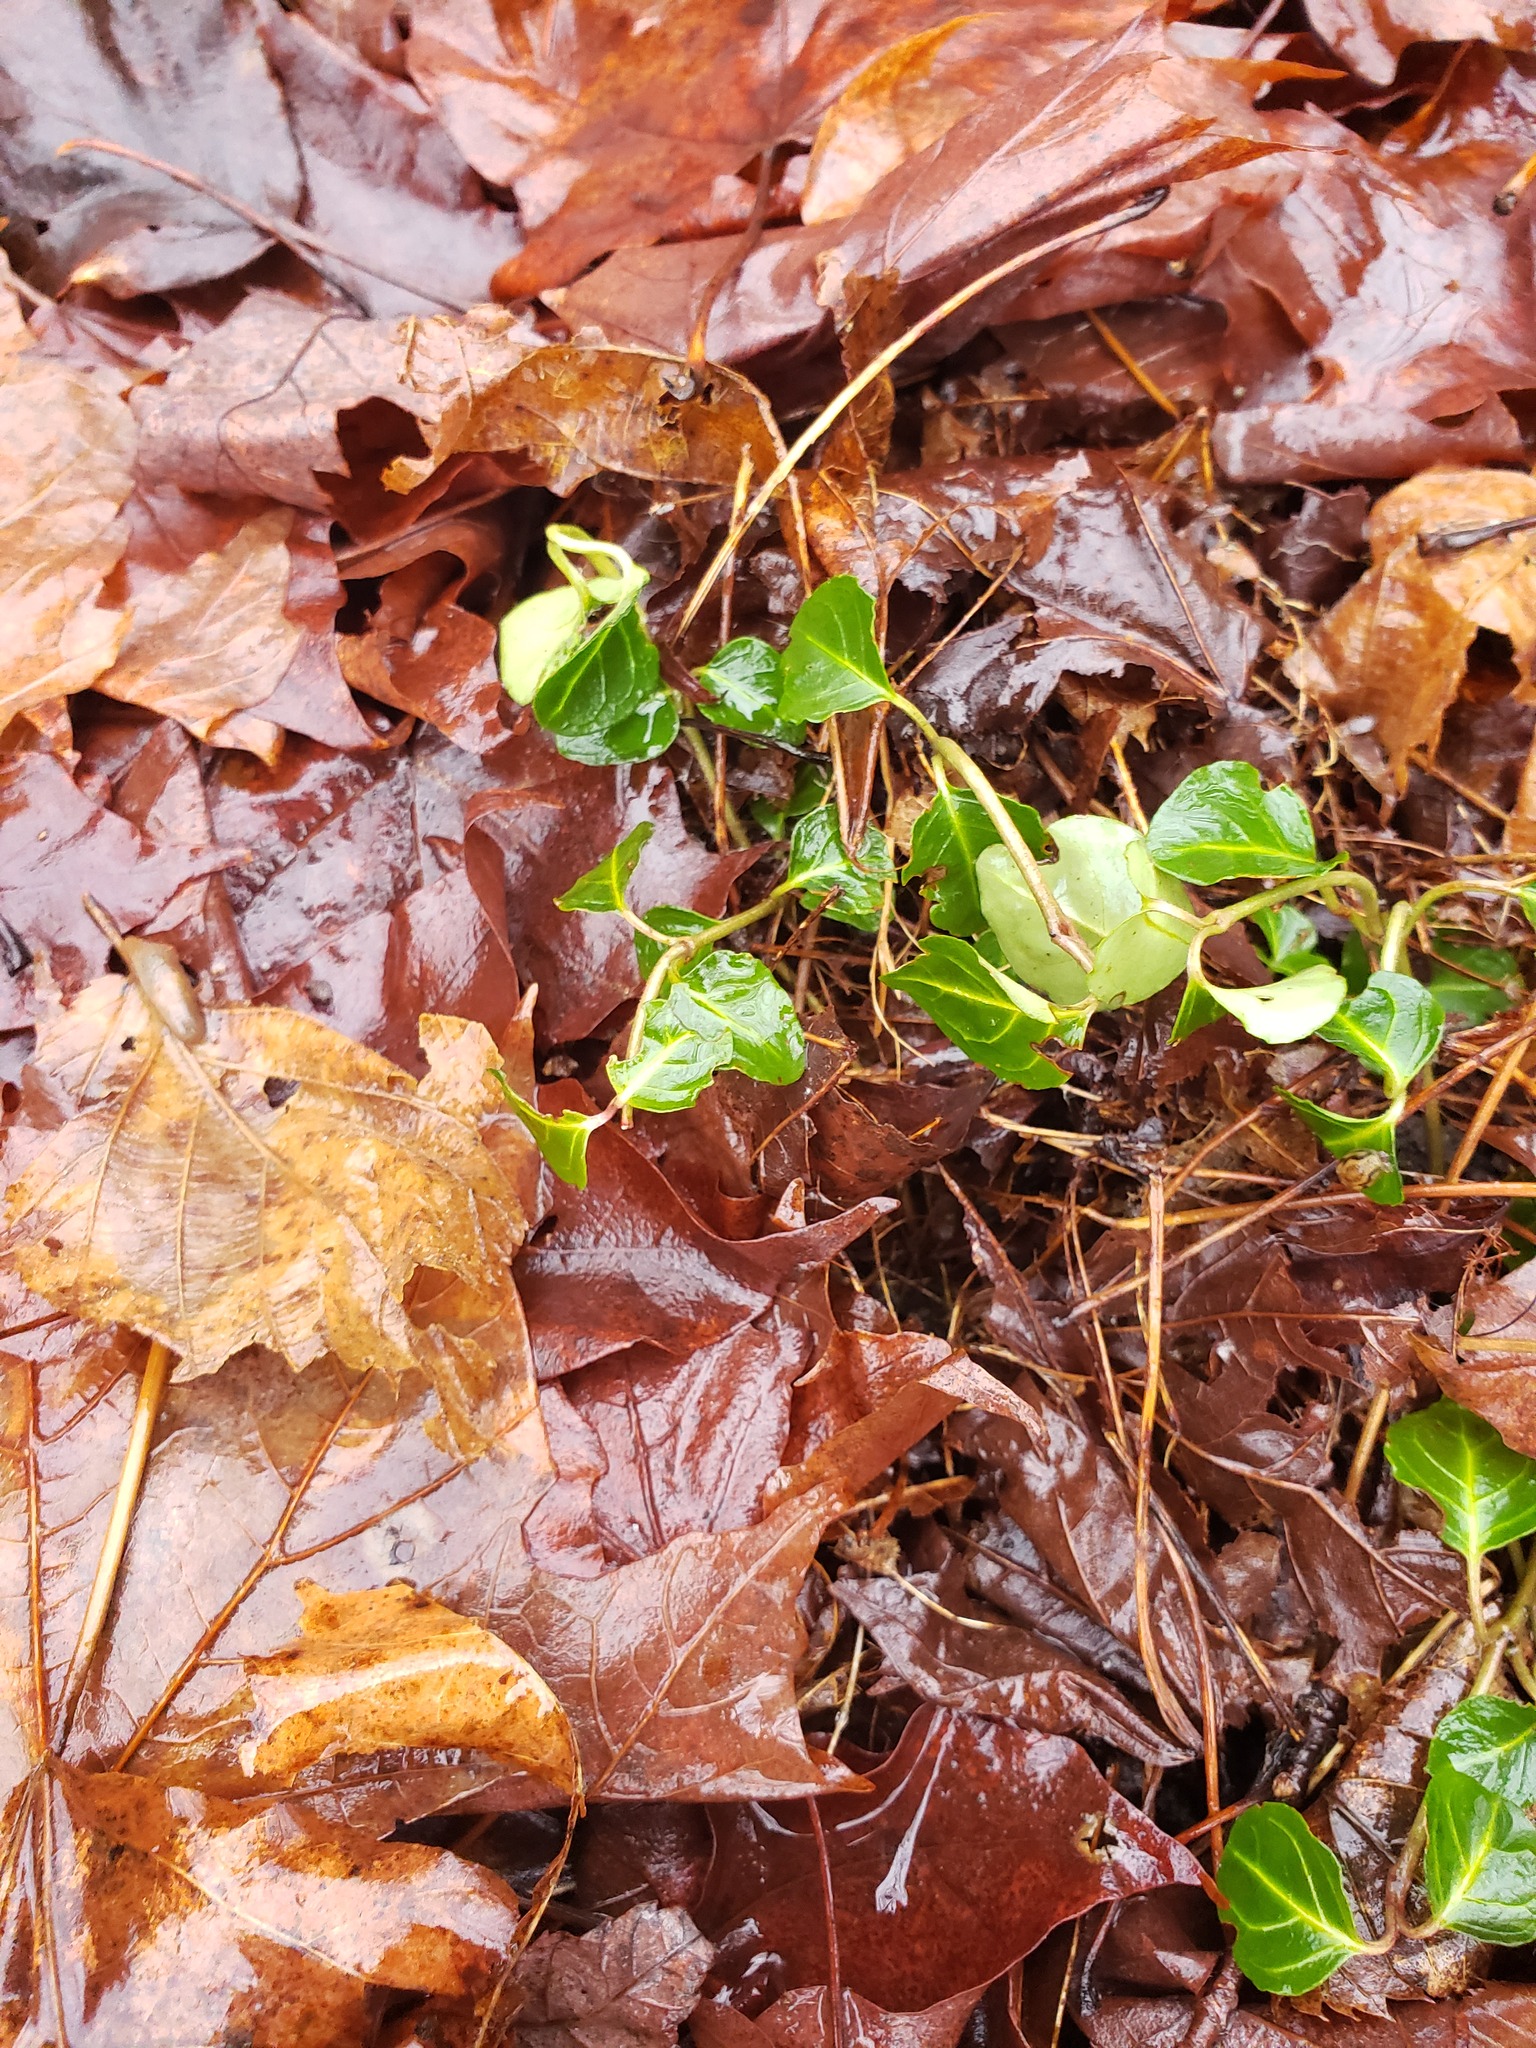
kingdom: Plantae
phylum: Tracheophyta
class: Magnoliopsida
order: Gentianales
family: Rubiaceae
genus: Mitchella
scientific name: Mitchella repens
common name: Partridge-berry
